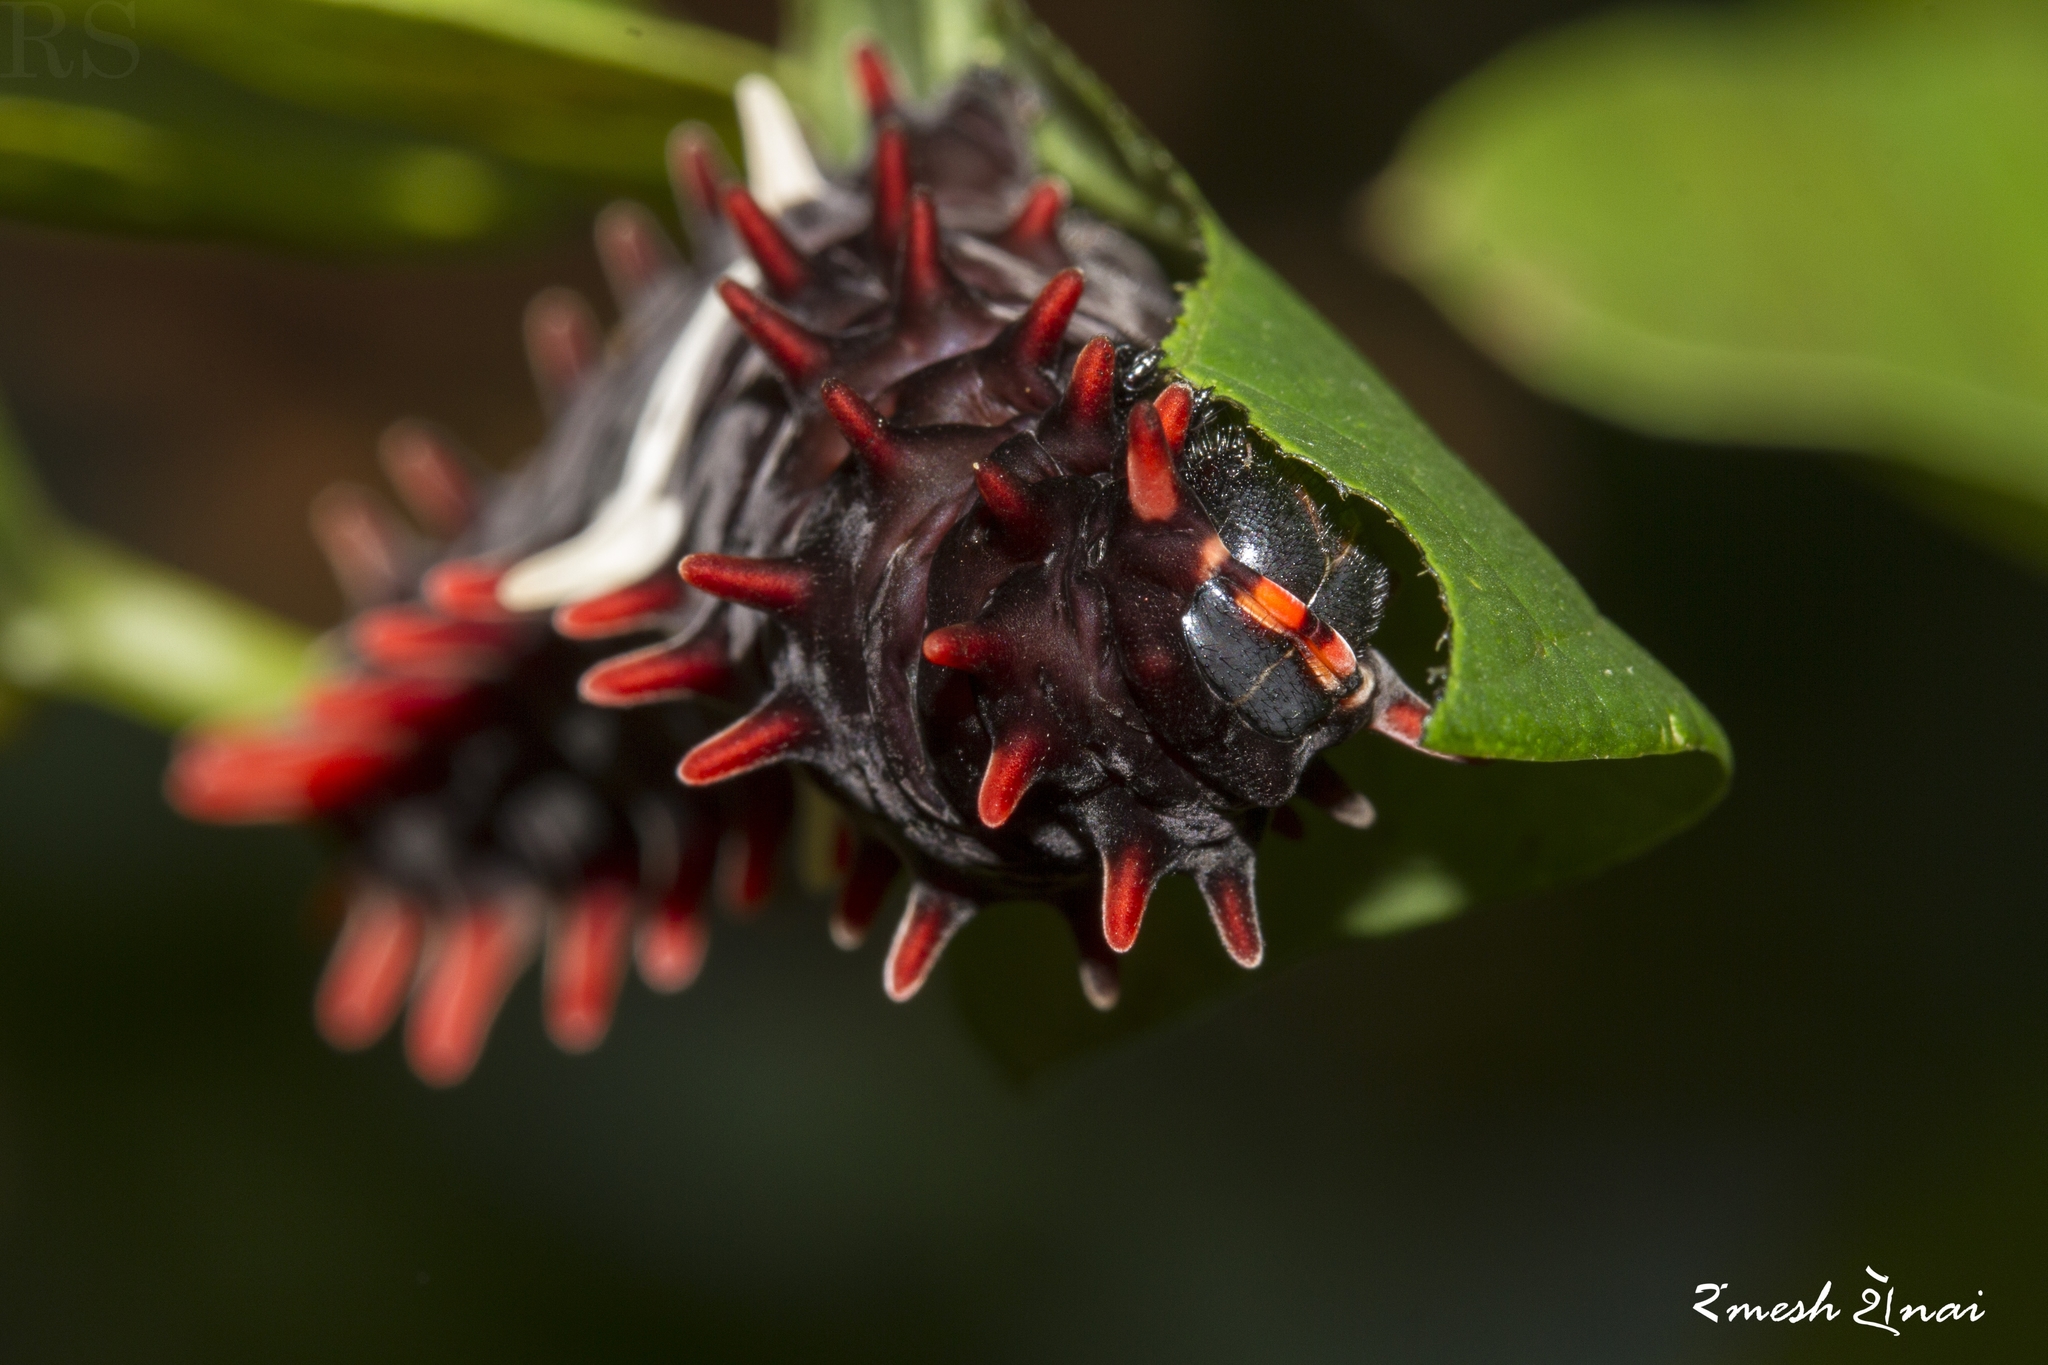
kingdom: Animalia
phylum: Arthropoda
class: Insecta
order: Lepidoptera
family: Papilionidae
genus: Pachliopta
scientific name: Pachliopta aristolochiae
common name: Common rose
